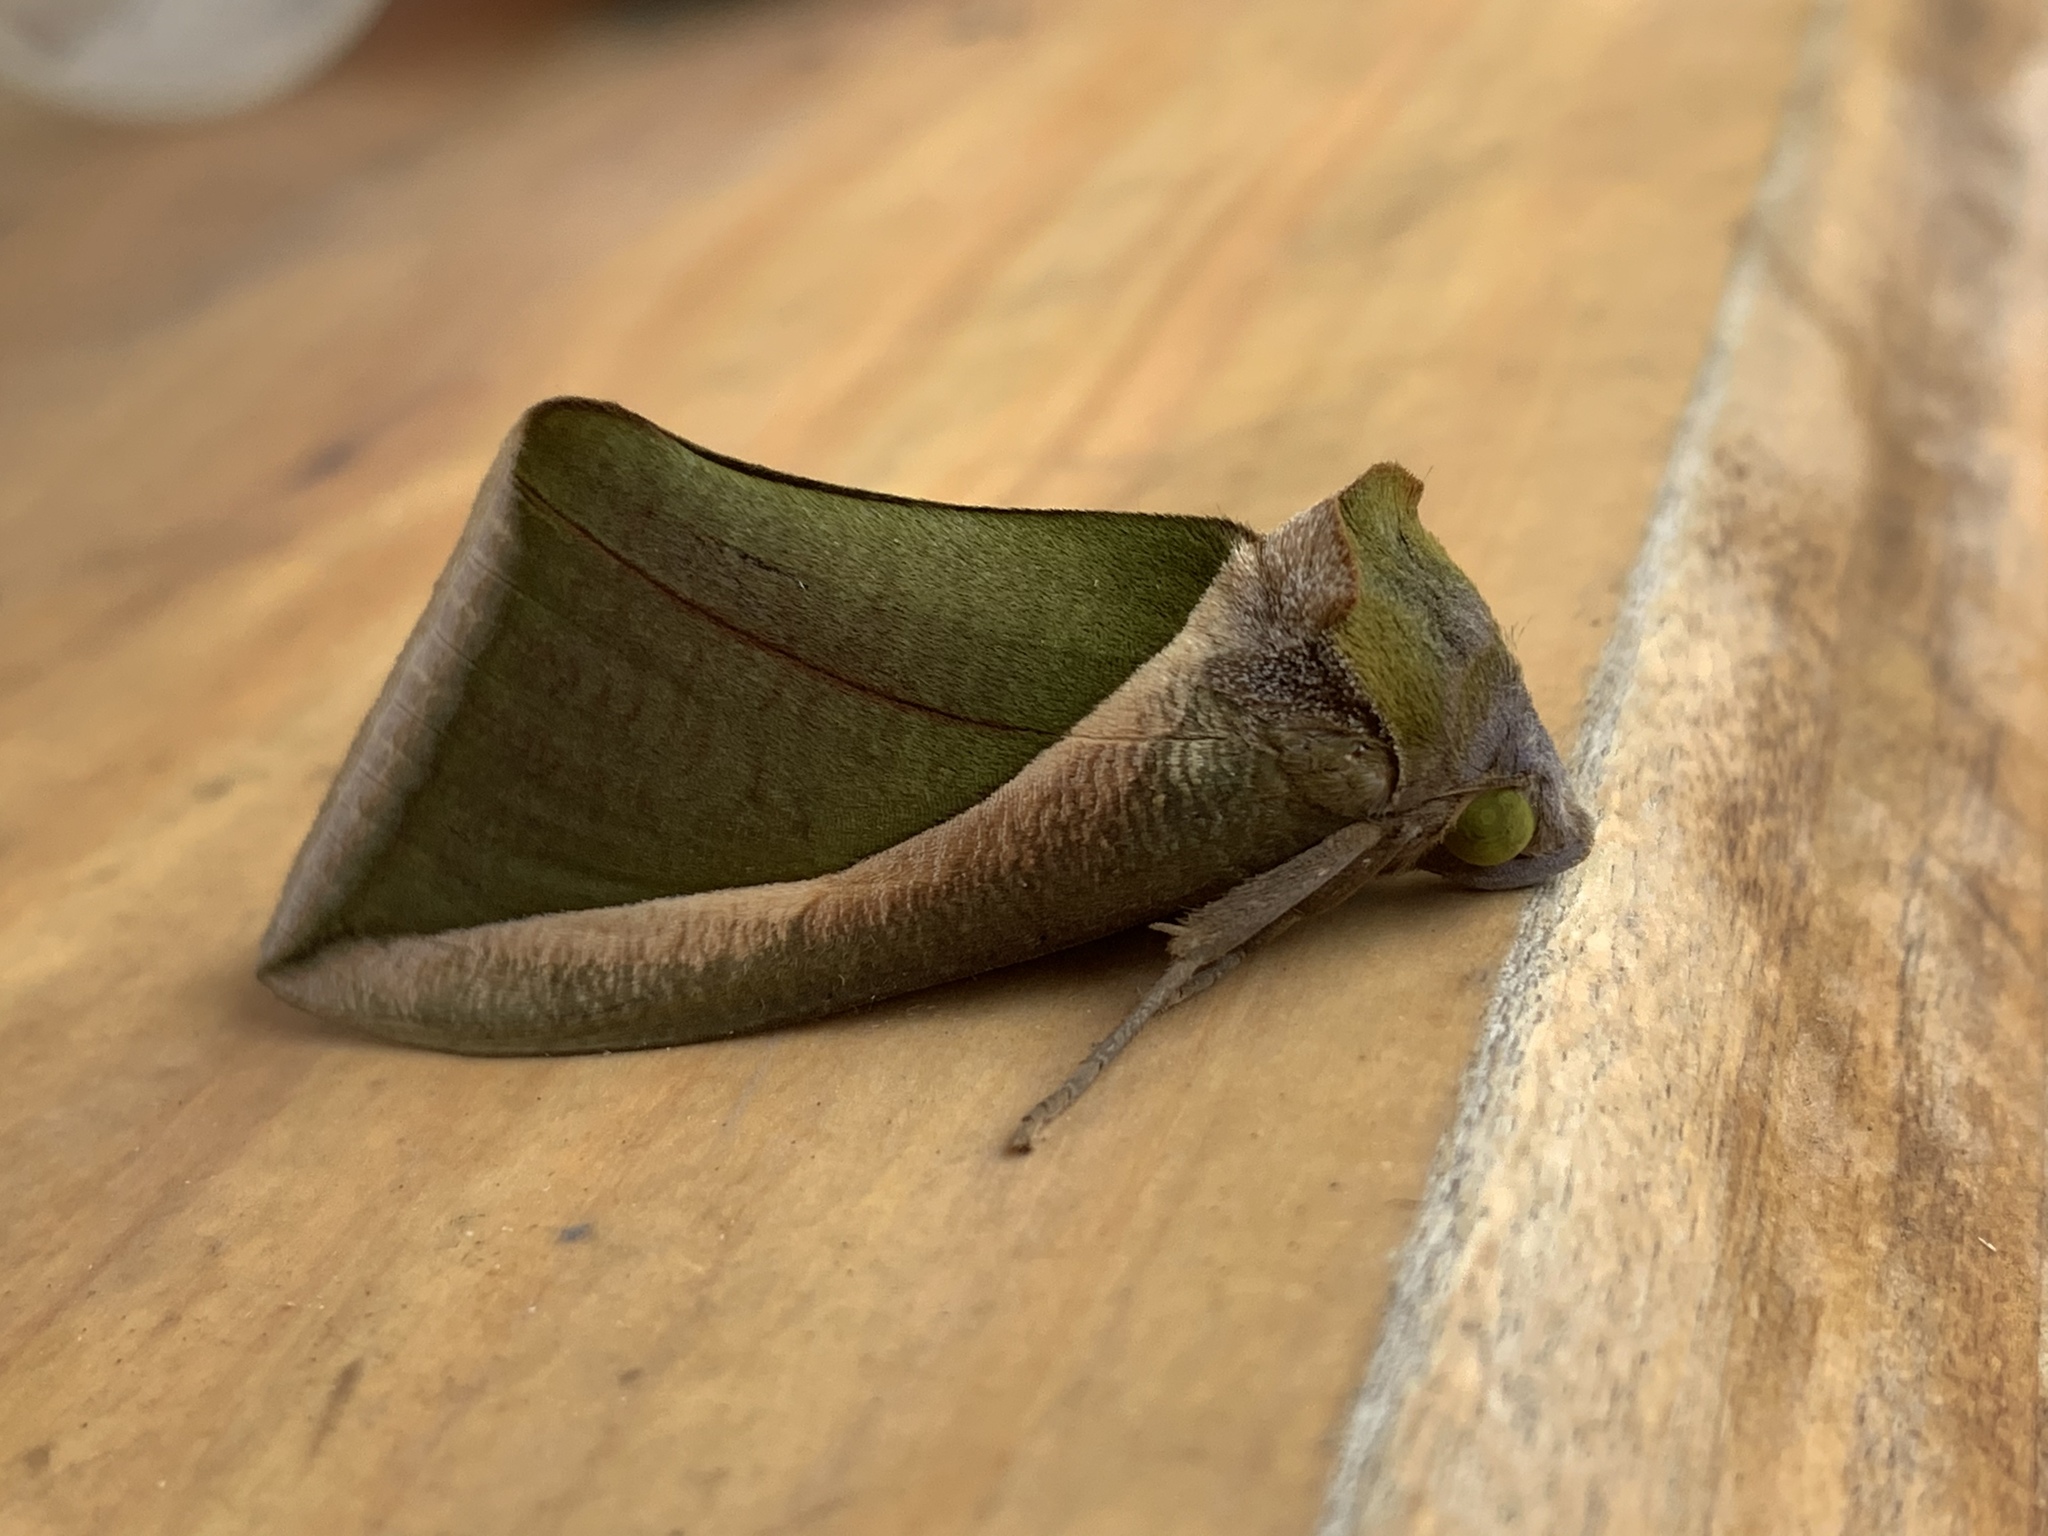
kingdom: Animalia
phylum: Arthropoda
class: Insecta
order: Lepidoptera
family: Erebidae
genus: Eudocima
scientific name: Eudocima salaminia
